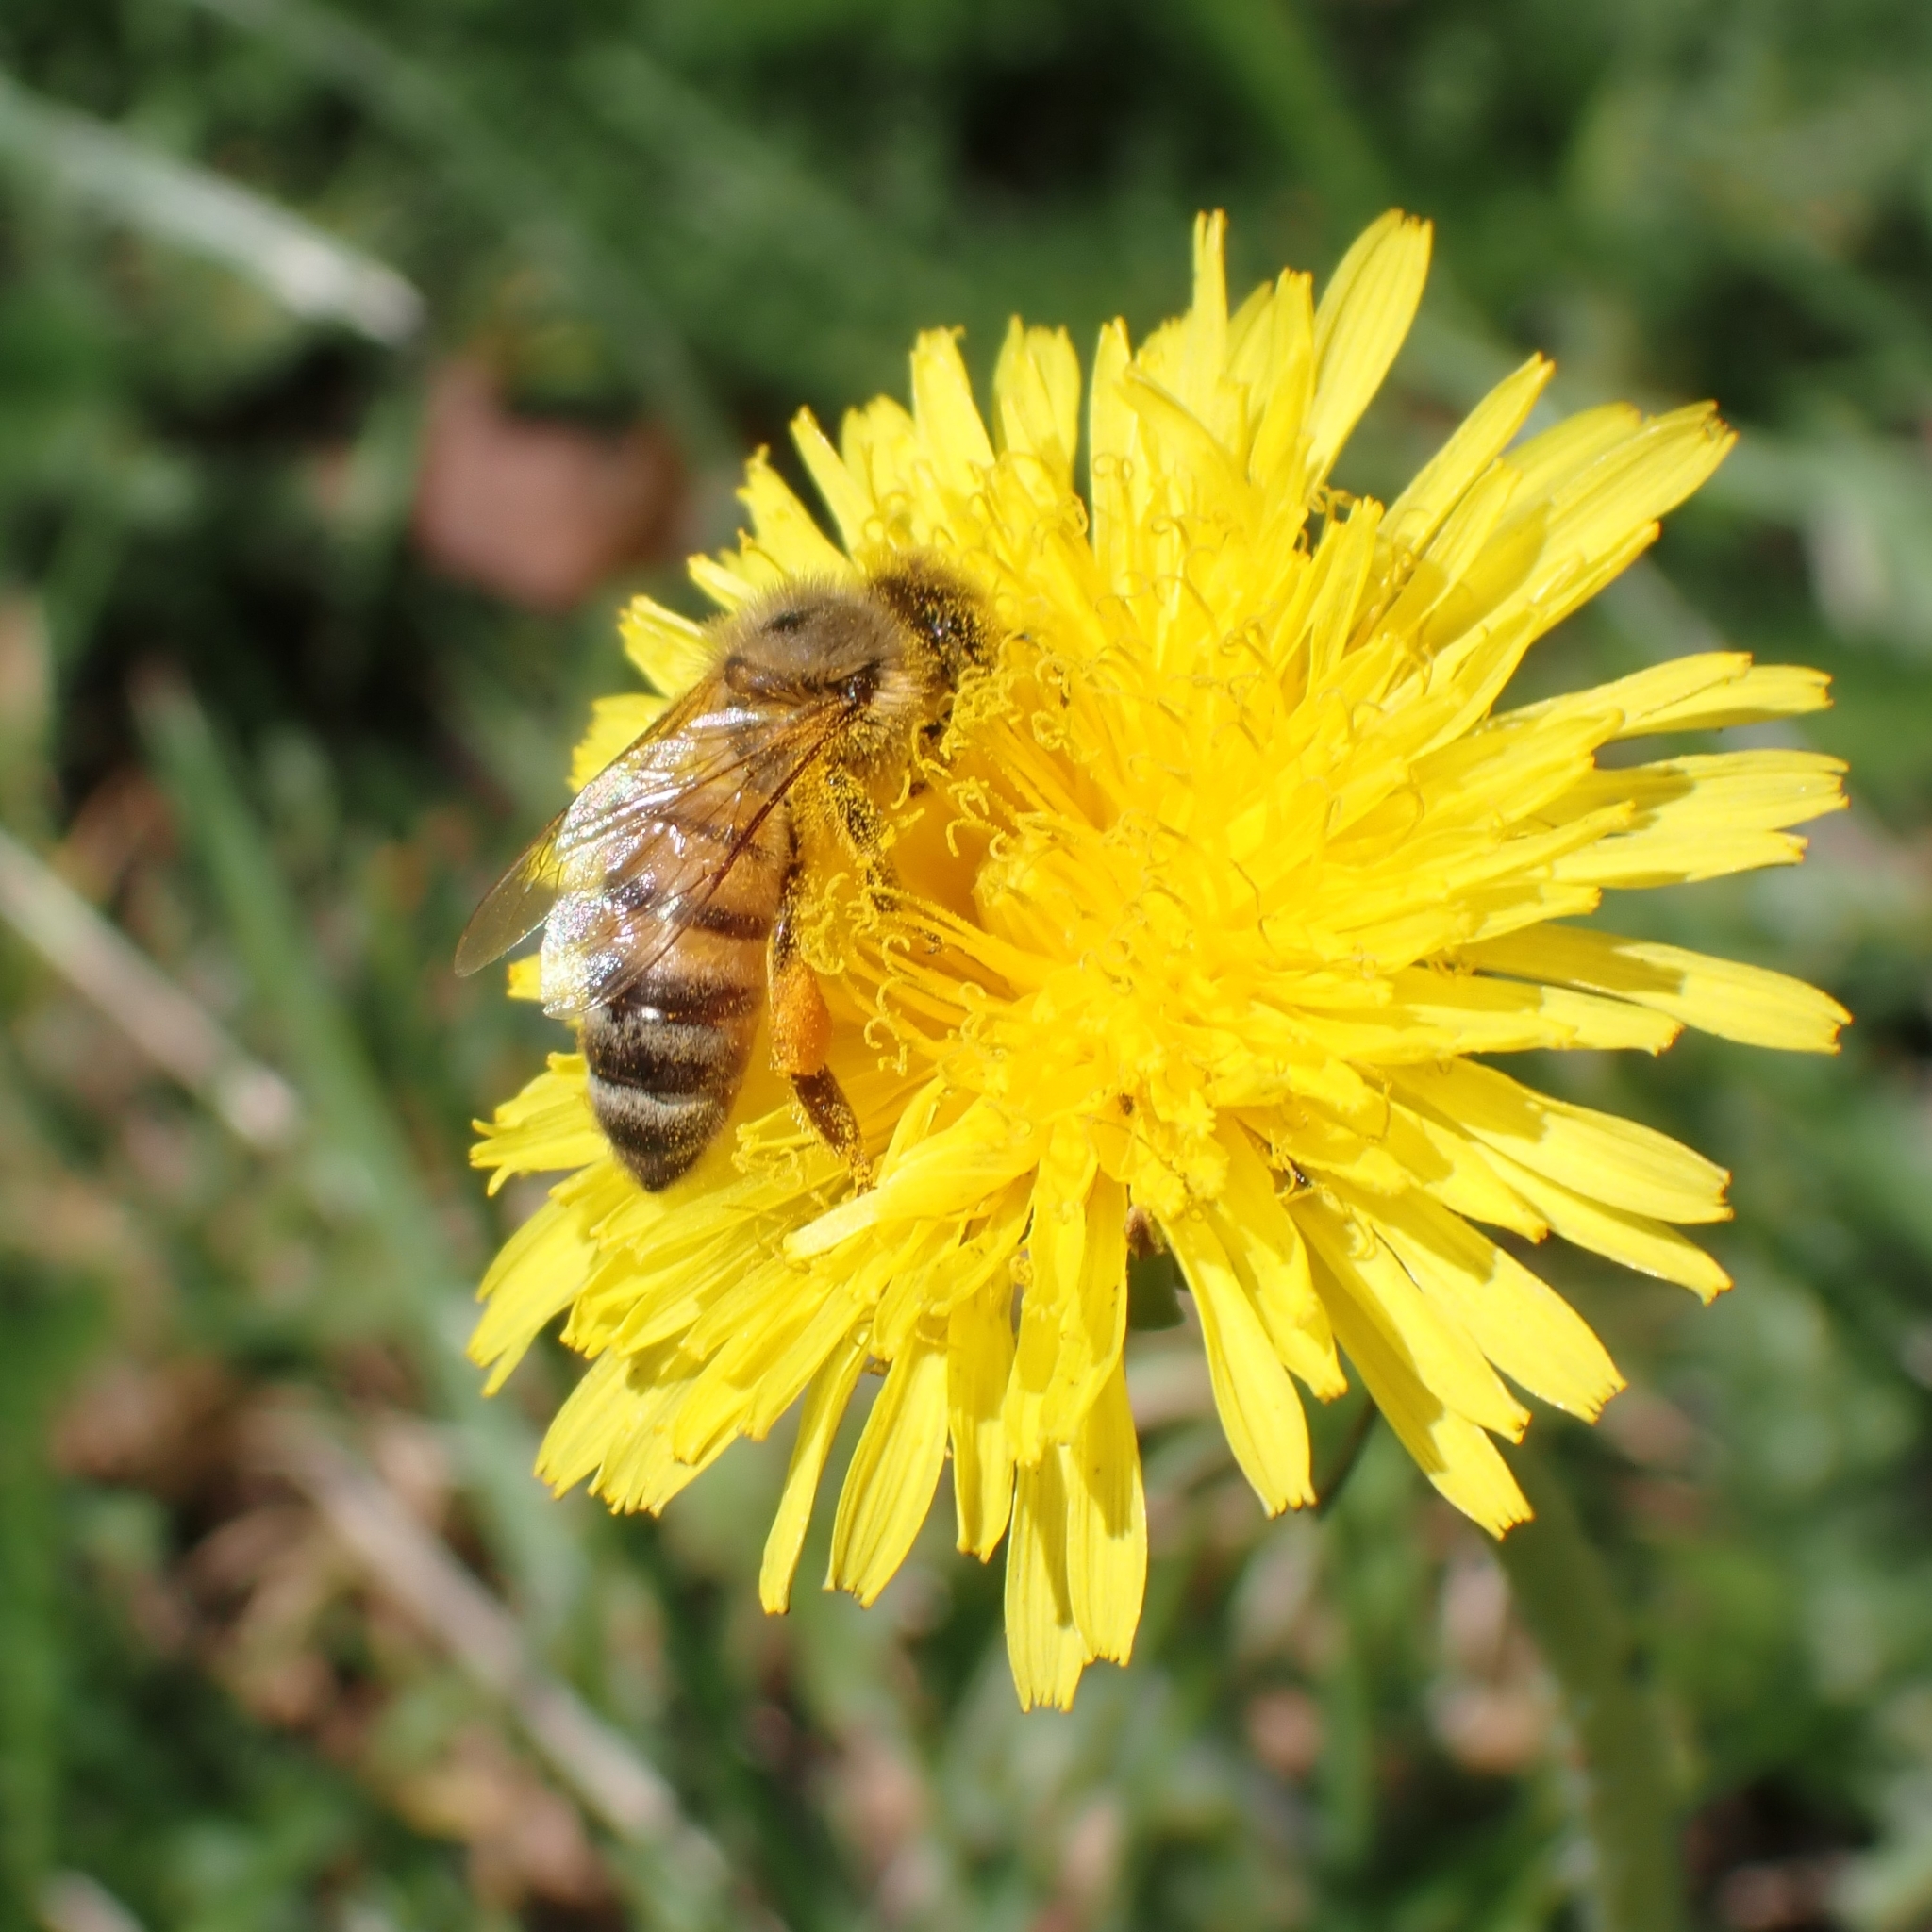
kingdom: Animalia
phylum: Arthropoda
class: Insecta
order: Hymenoptera
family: Apidae
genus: Apis
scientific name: Apis mellifera
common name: Honey bee
